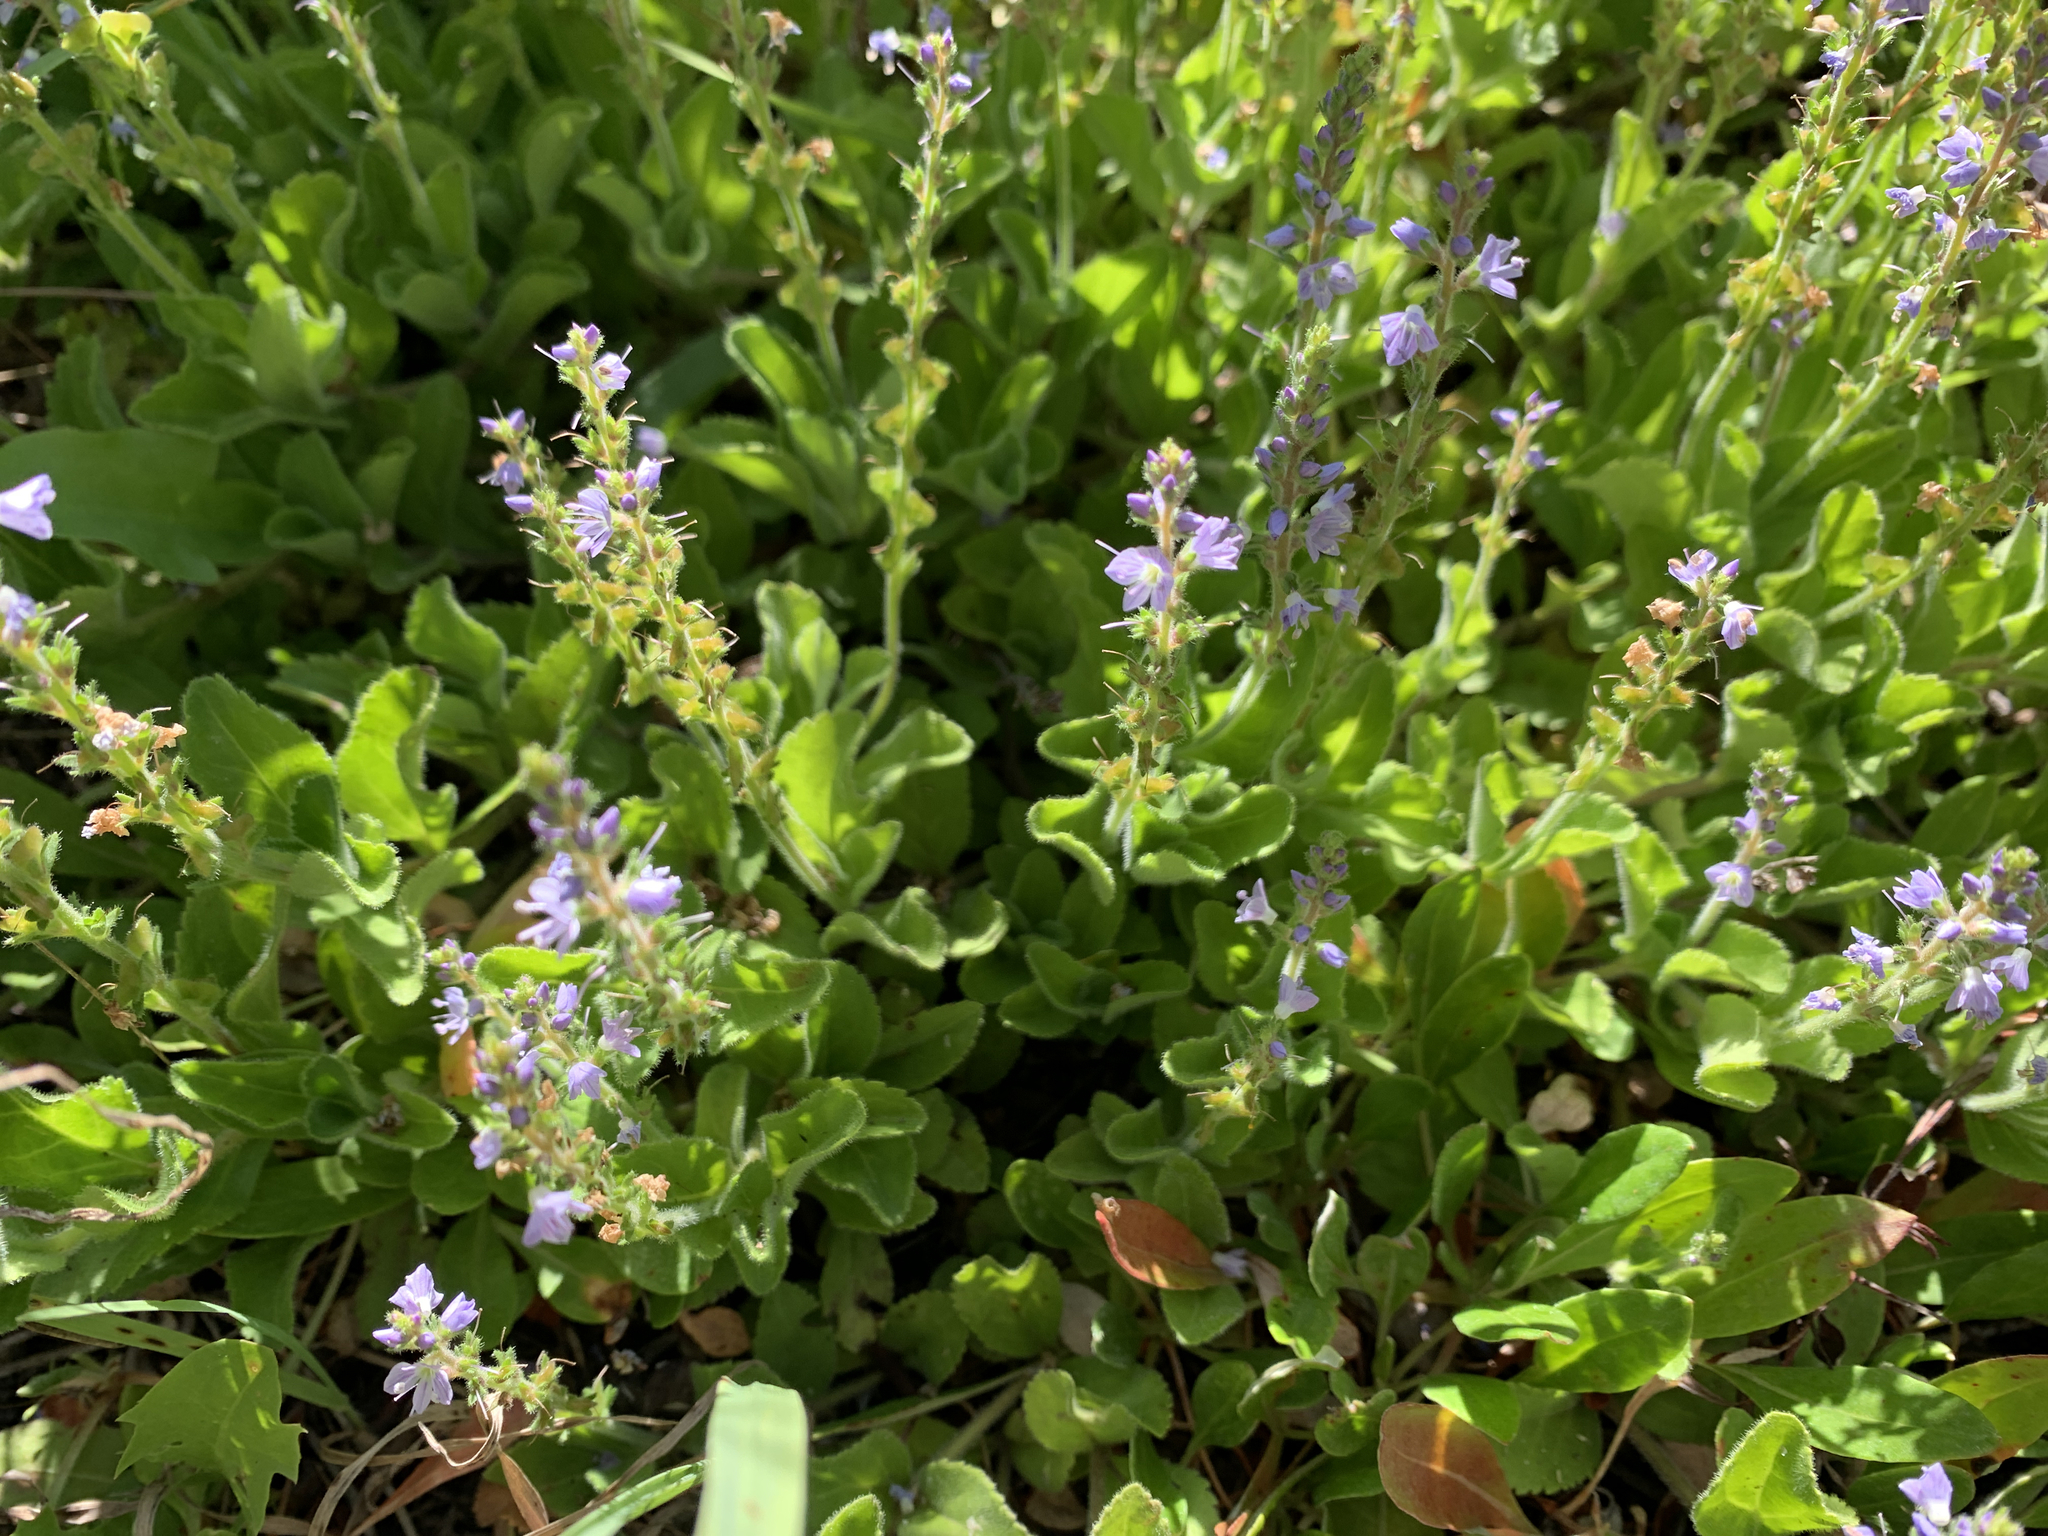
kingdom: Plantae
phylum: Tracheophyta
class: Magnoliopsida
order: Lamiales
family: Plantaginaceae
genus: Veronica
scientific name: Veronica officinalis
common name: Common speedwell
